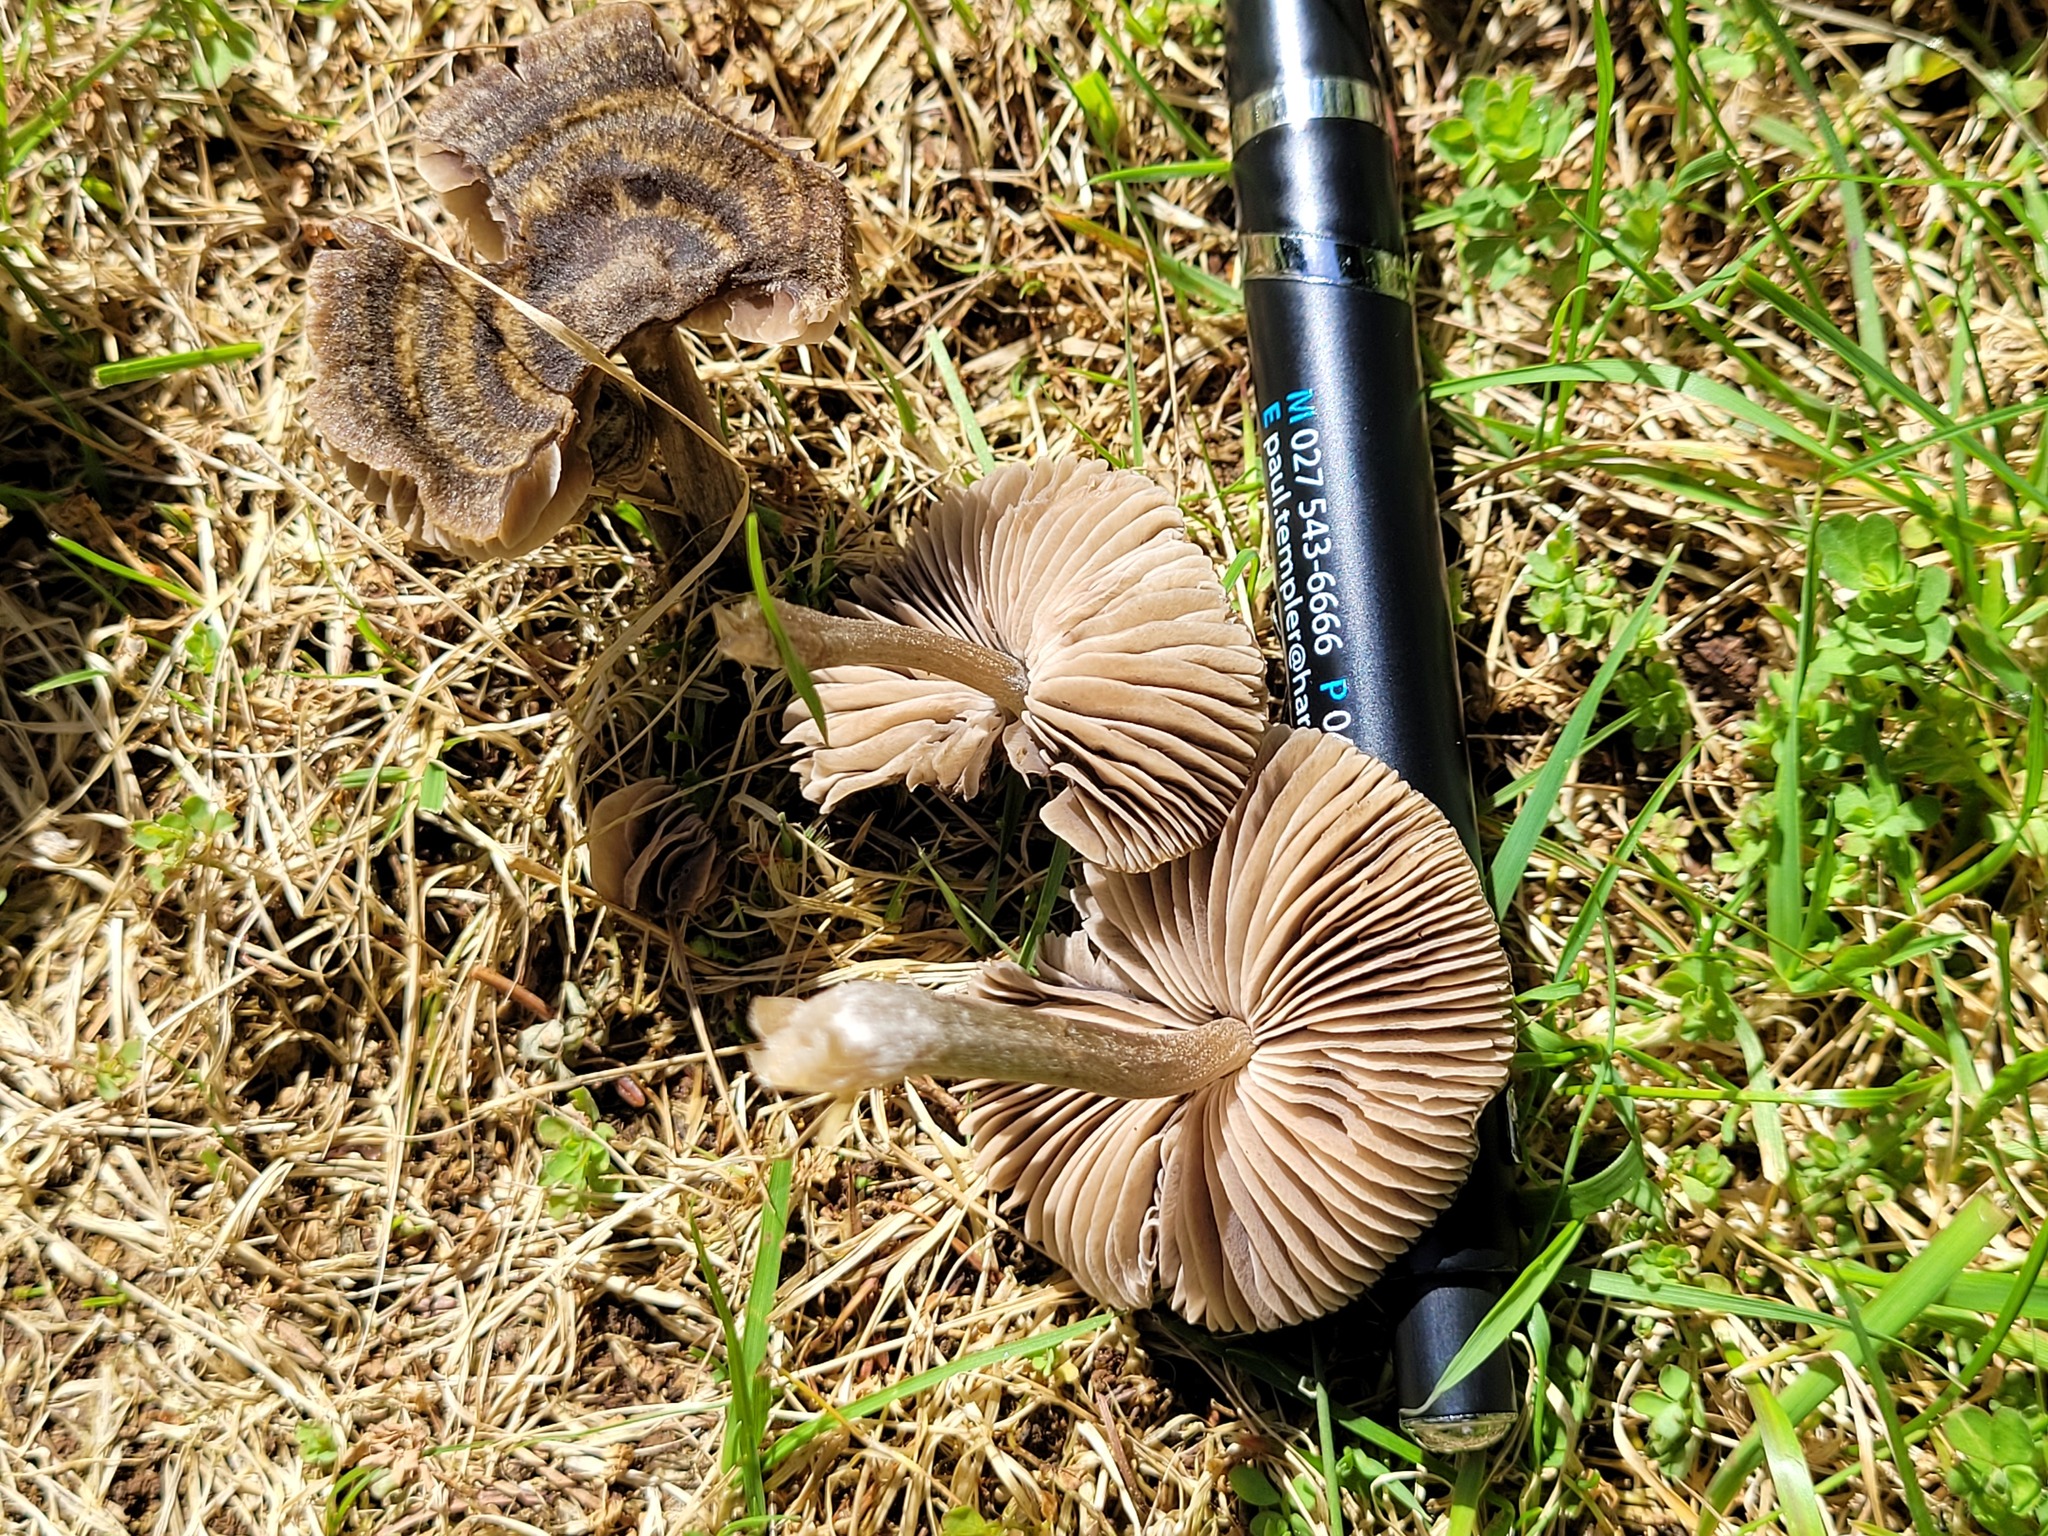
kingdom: Fungi
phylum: Basidiomycota
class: Agaricomycetes
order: Agaricales
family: Entolomataceae
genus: Entoloma
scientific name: Entoloma perzonatum
